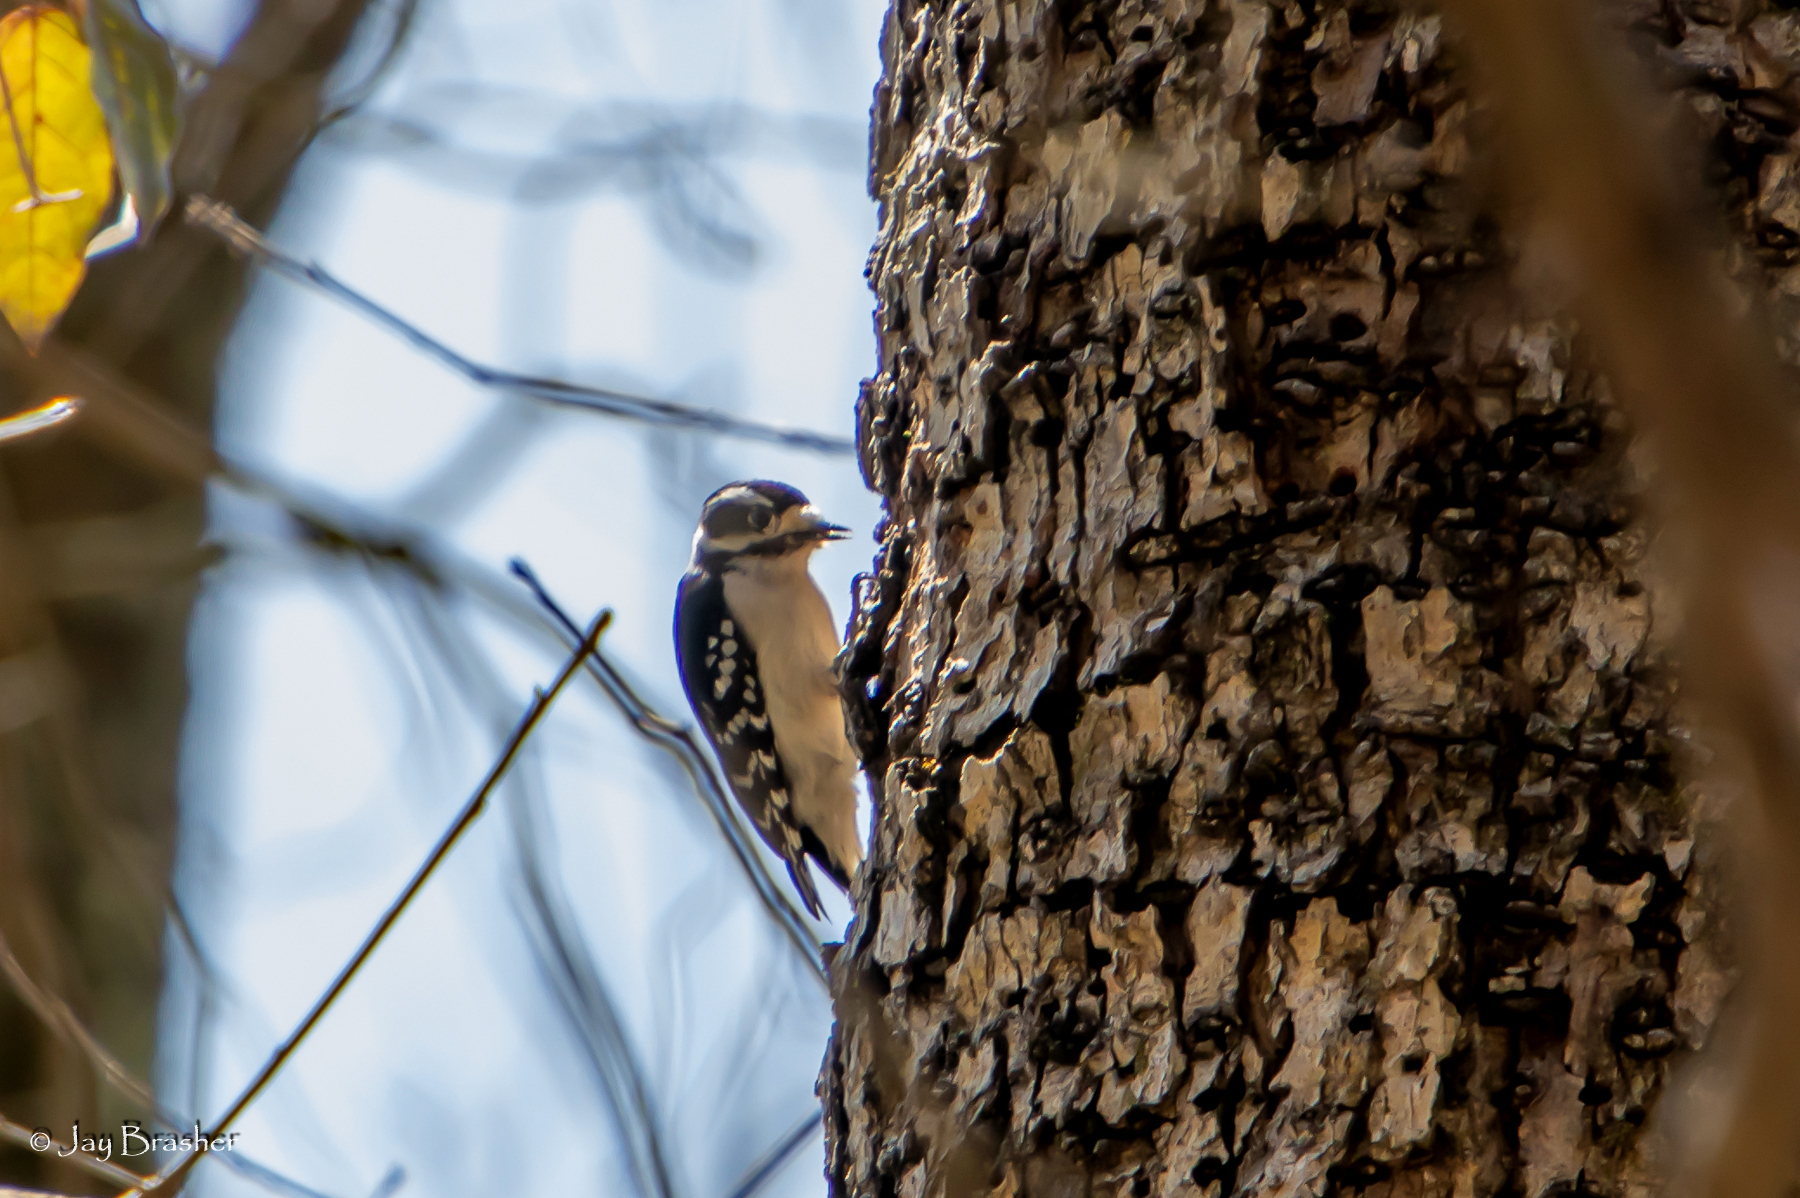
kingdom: Animalia
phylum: Chordata
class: Aves
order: Piciformes
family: Picidae
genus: Dryobates
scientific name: Dryobates pubescens
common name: Downy woodpecker
